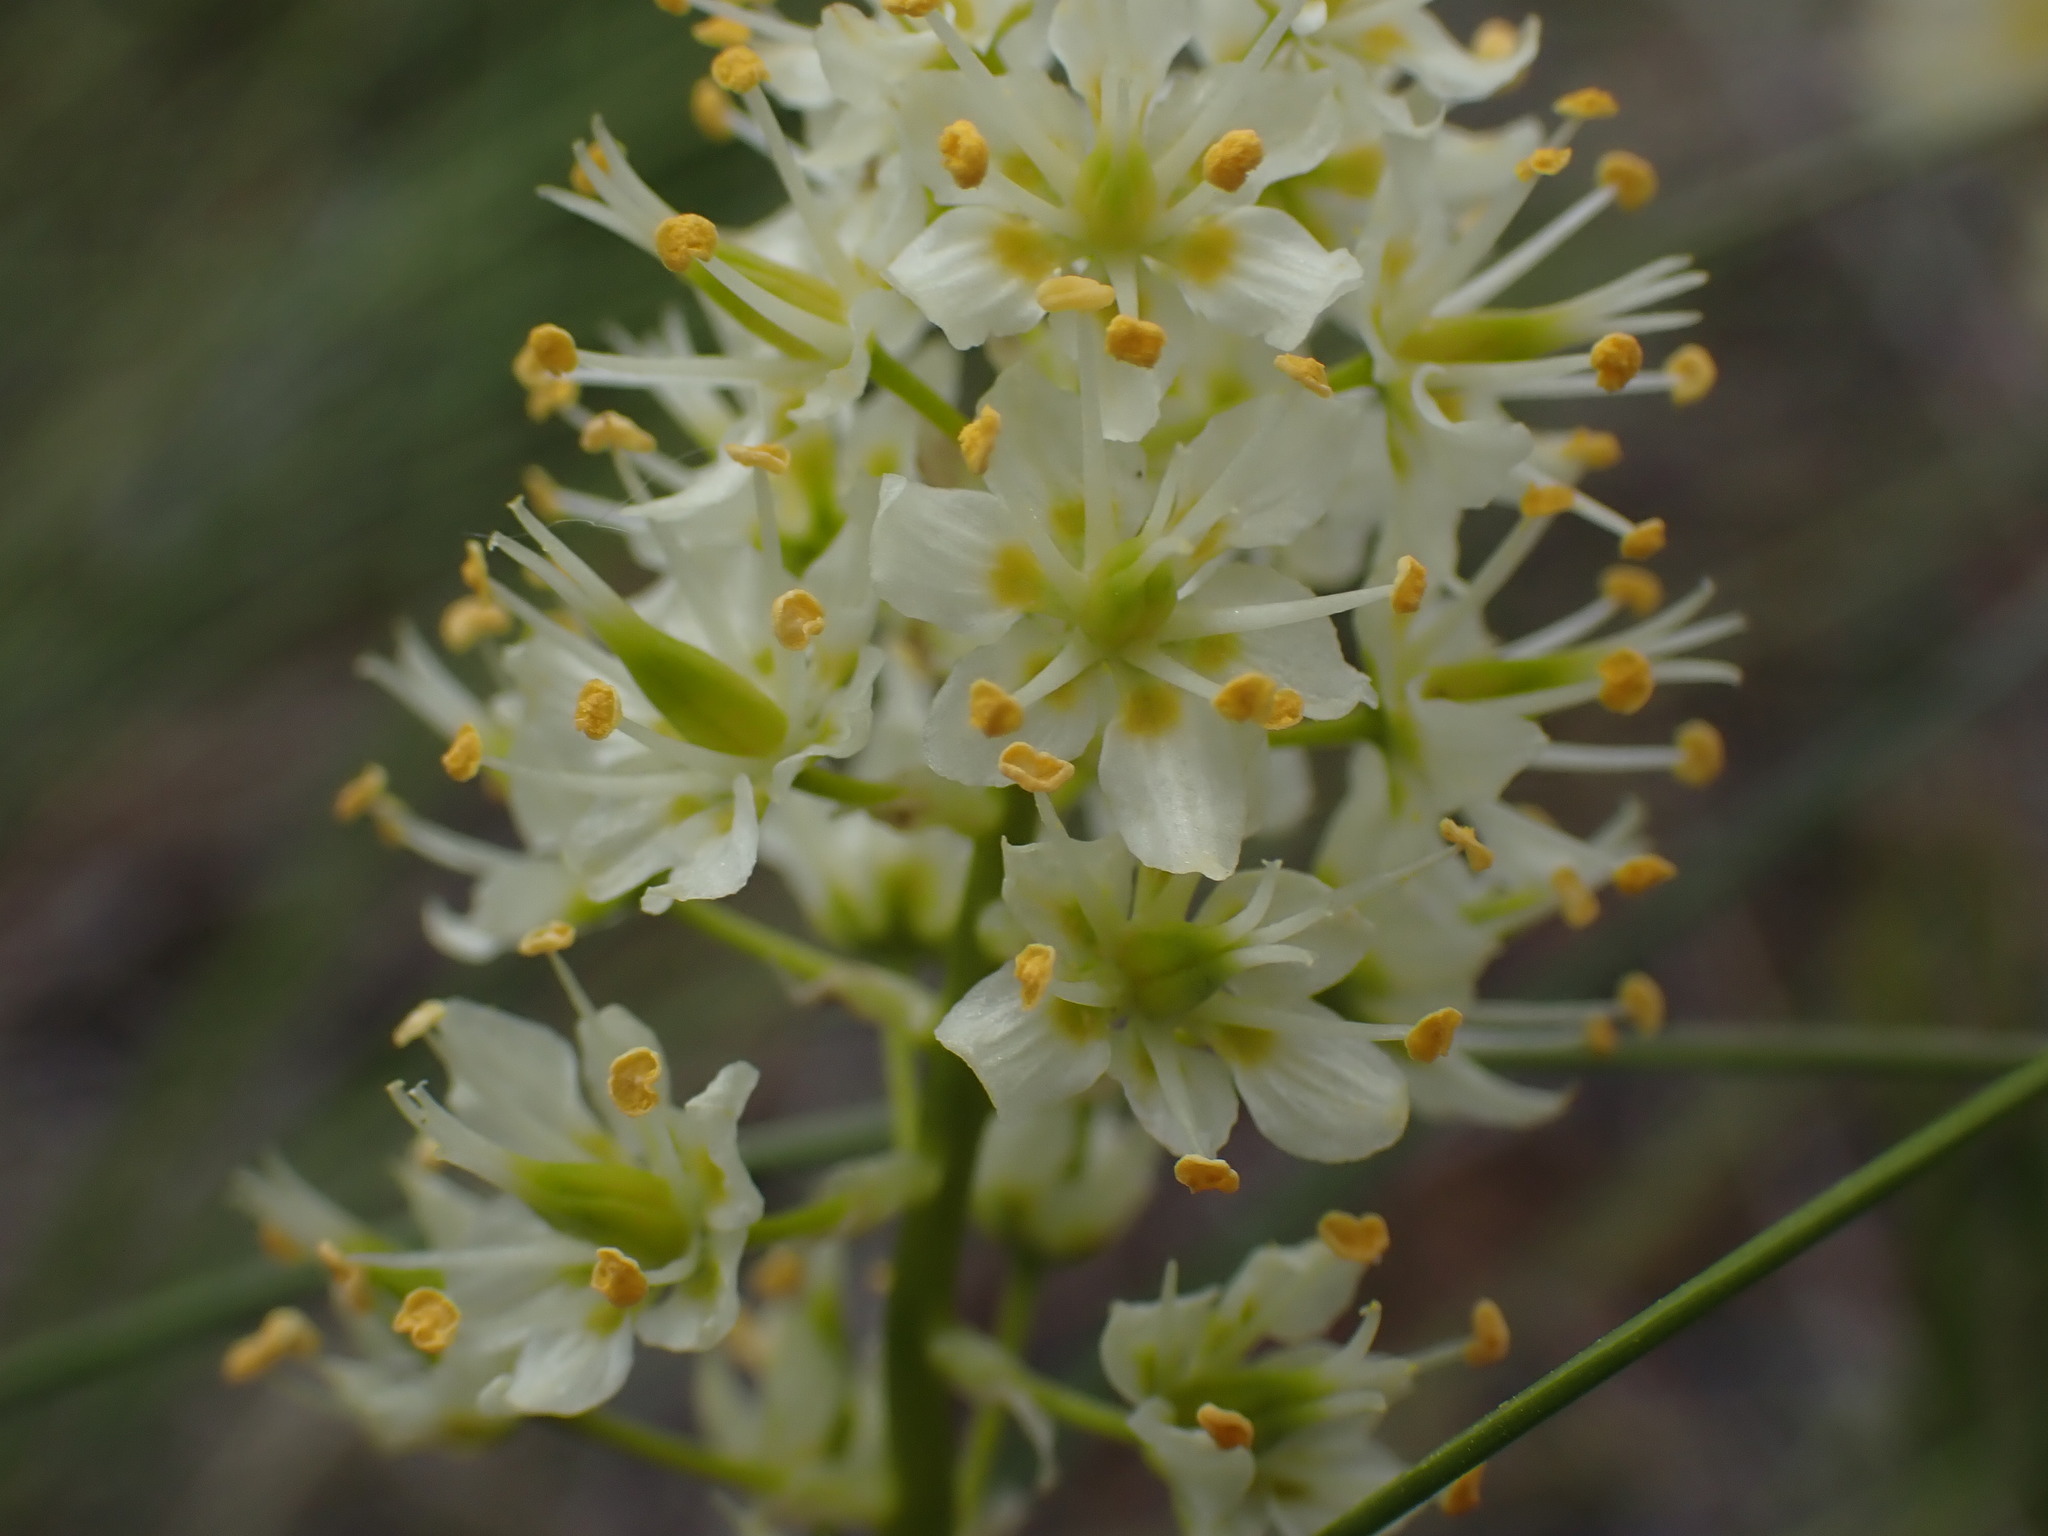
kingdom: Plantae
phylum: Tracheophyta
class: Liliopsida
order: Liliales
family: Melanthiaceae
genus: Toxicoscordion
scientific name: Toxicoscordion venenosum
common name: Meadow death camas
